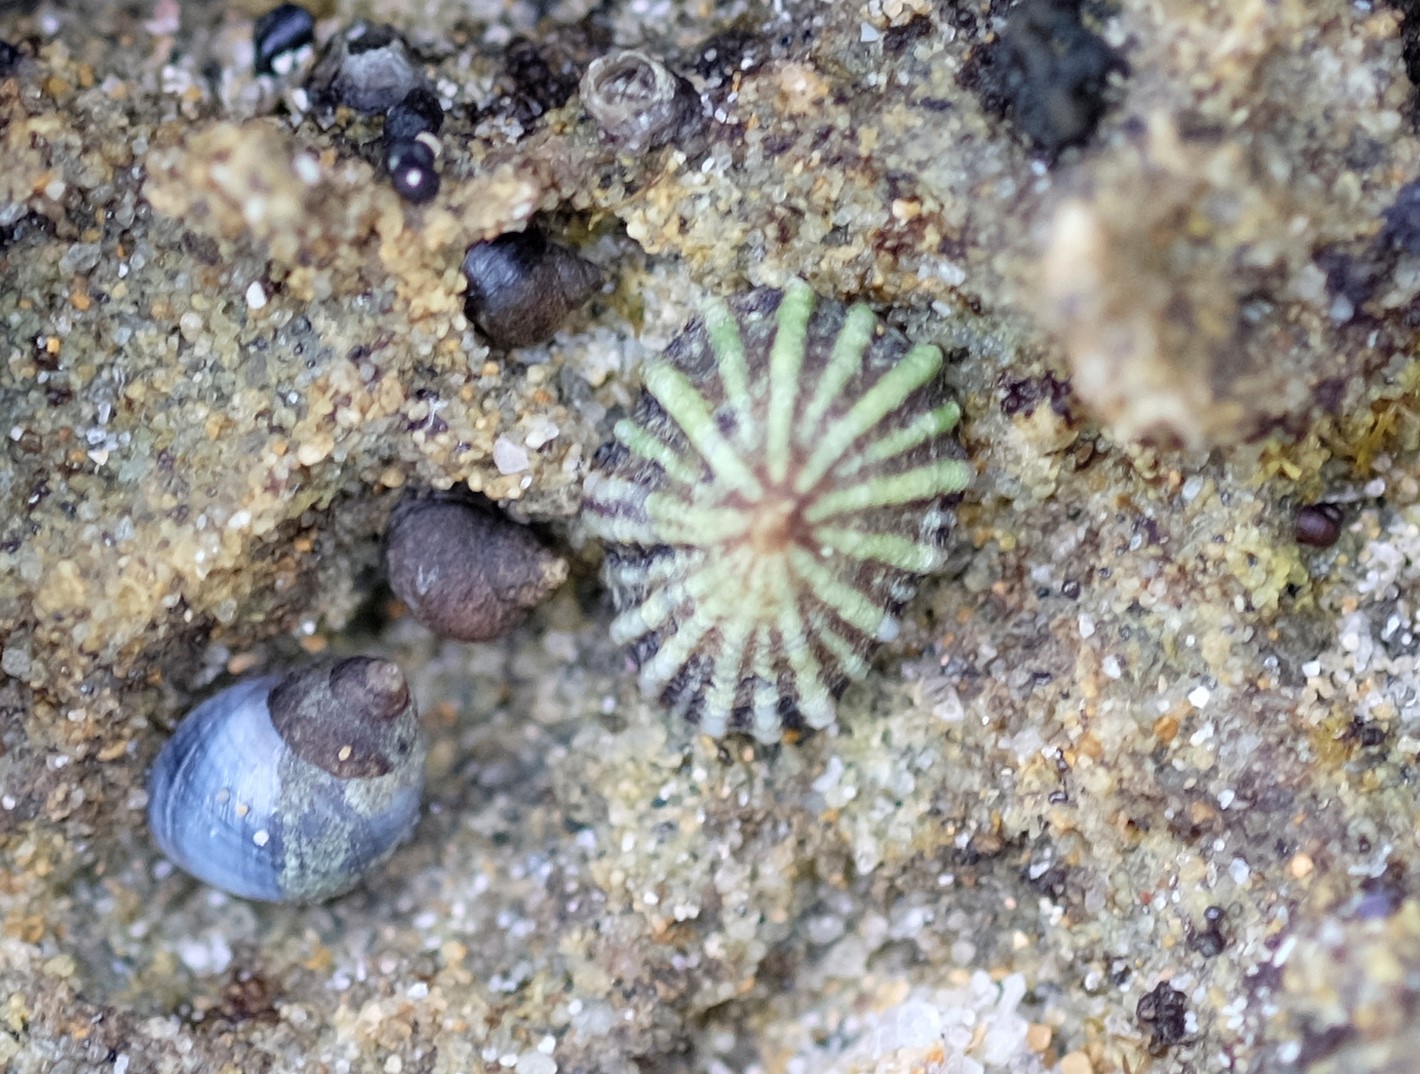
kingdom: Animalia
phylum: Mollusca
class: Gastropoda
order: Siphonariida
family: Siphonariidae
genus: Siphonaria
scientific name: Siphonaria diemenensis
